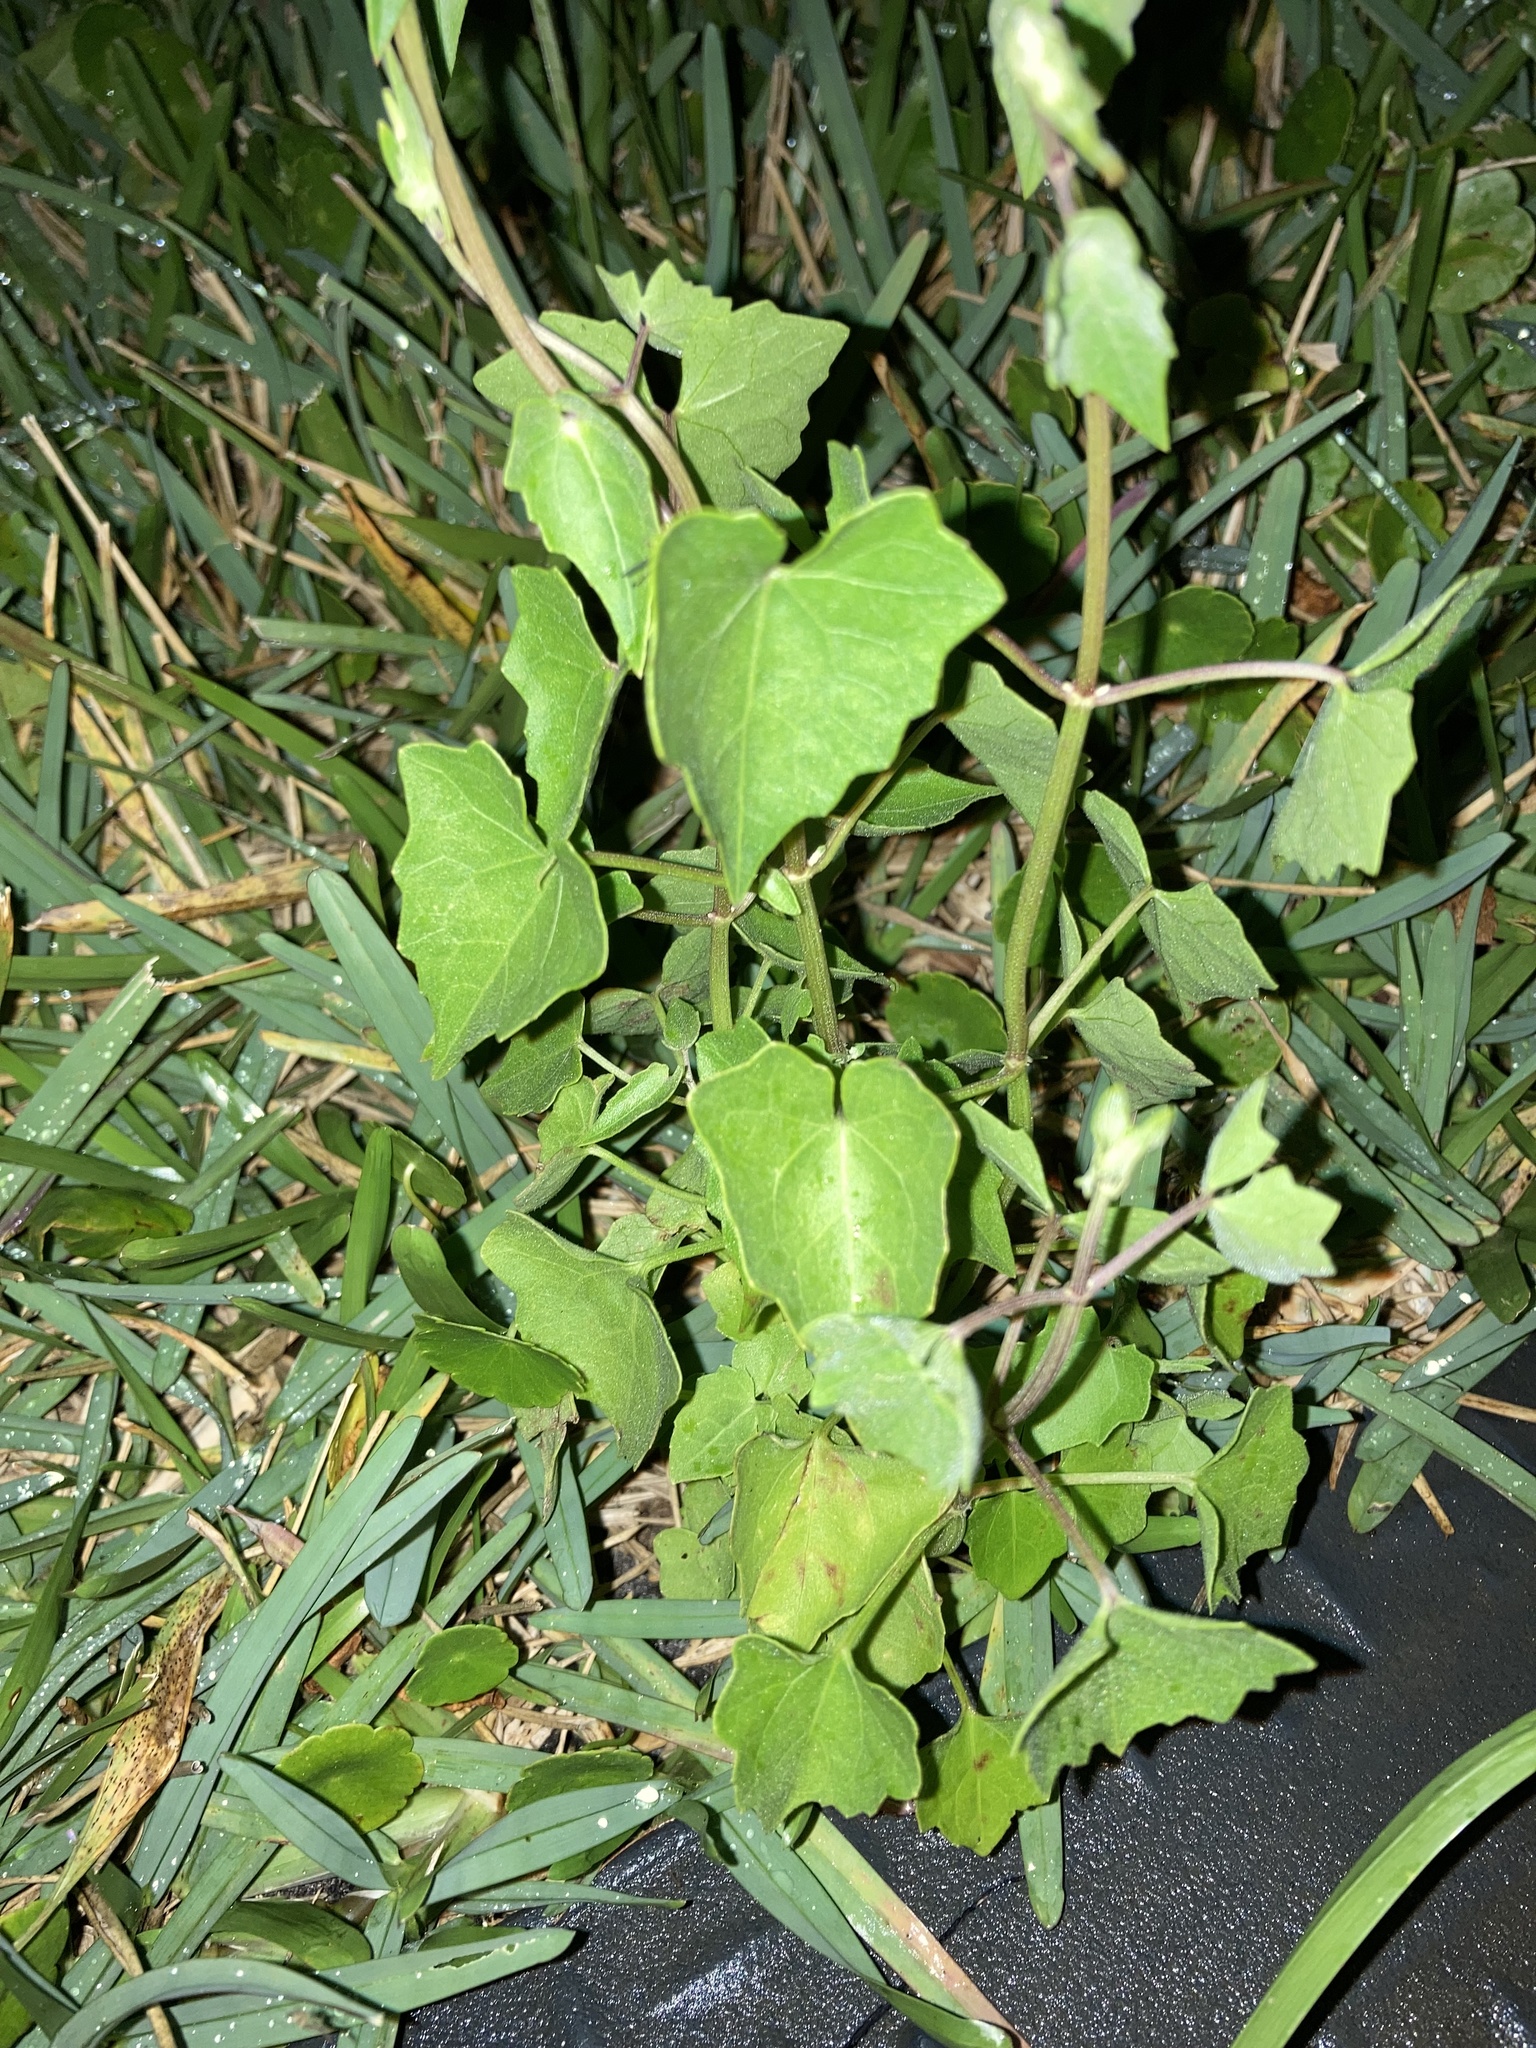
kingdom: Plantae
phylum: Tracheophyta
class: Magnoliopsida
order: Asterales
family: Asteraceae
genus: Mikania
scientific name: Mikania scandens
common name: Climbing hempvine
